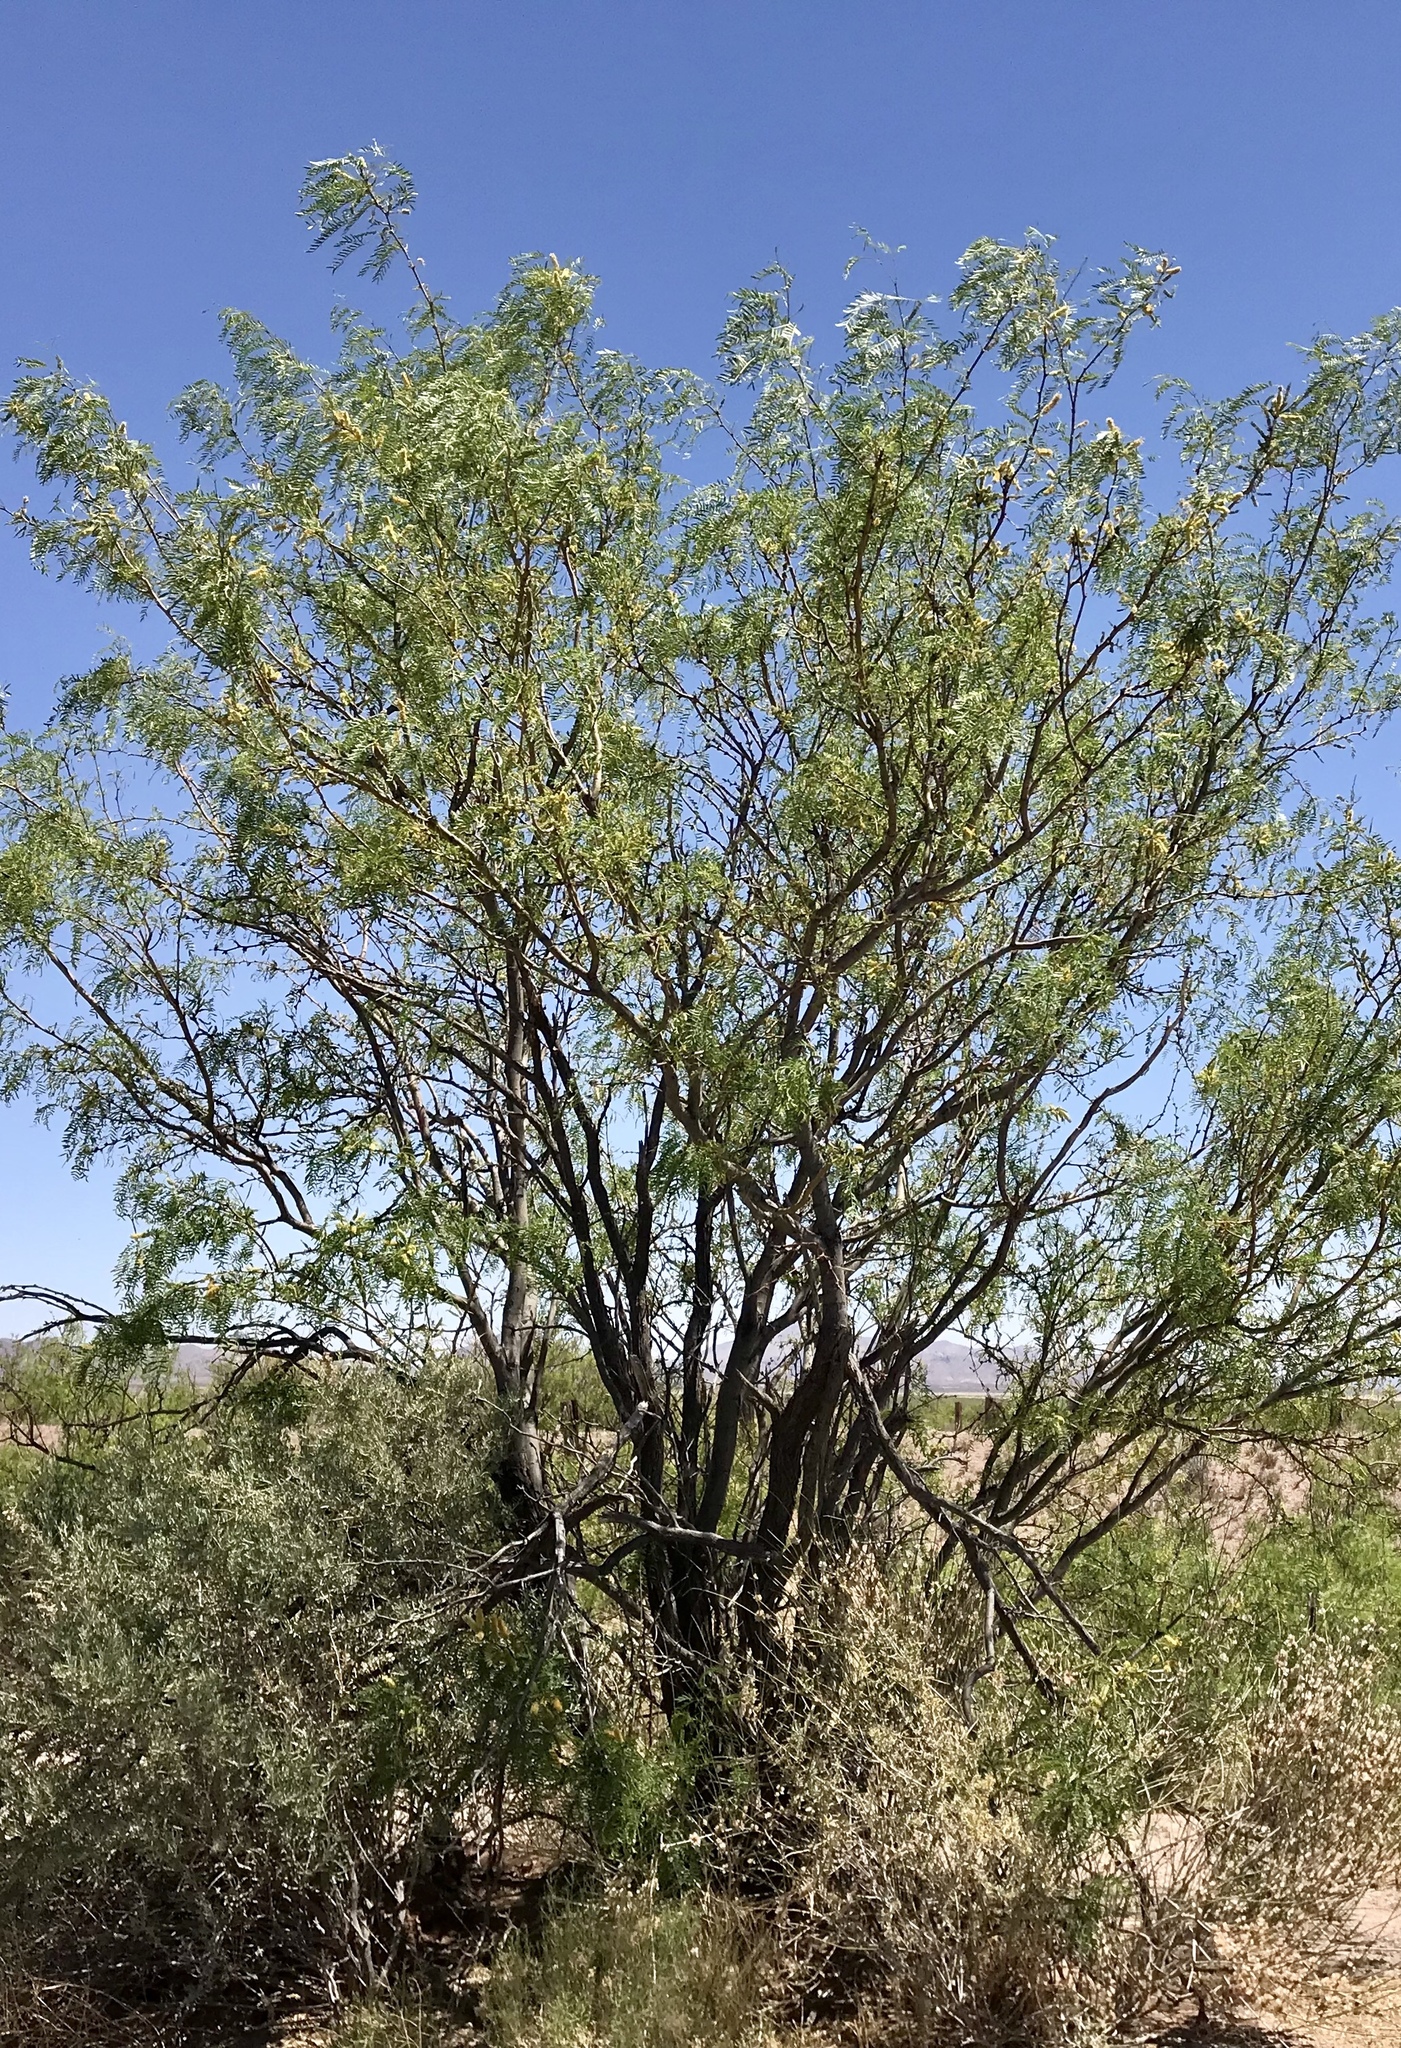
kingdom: Plantae
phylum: Tracheophyta
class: Magnoliopsida
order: Fabales
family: Fabaceae
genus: Prosopis
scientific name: Prosopis glandulosa
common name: Honey mesquite
